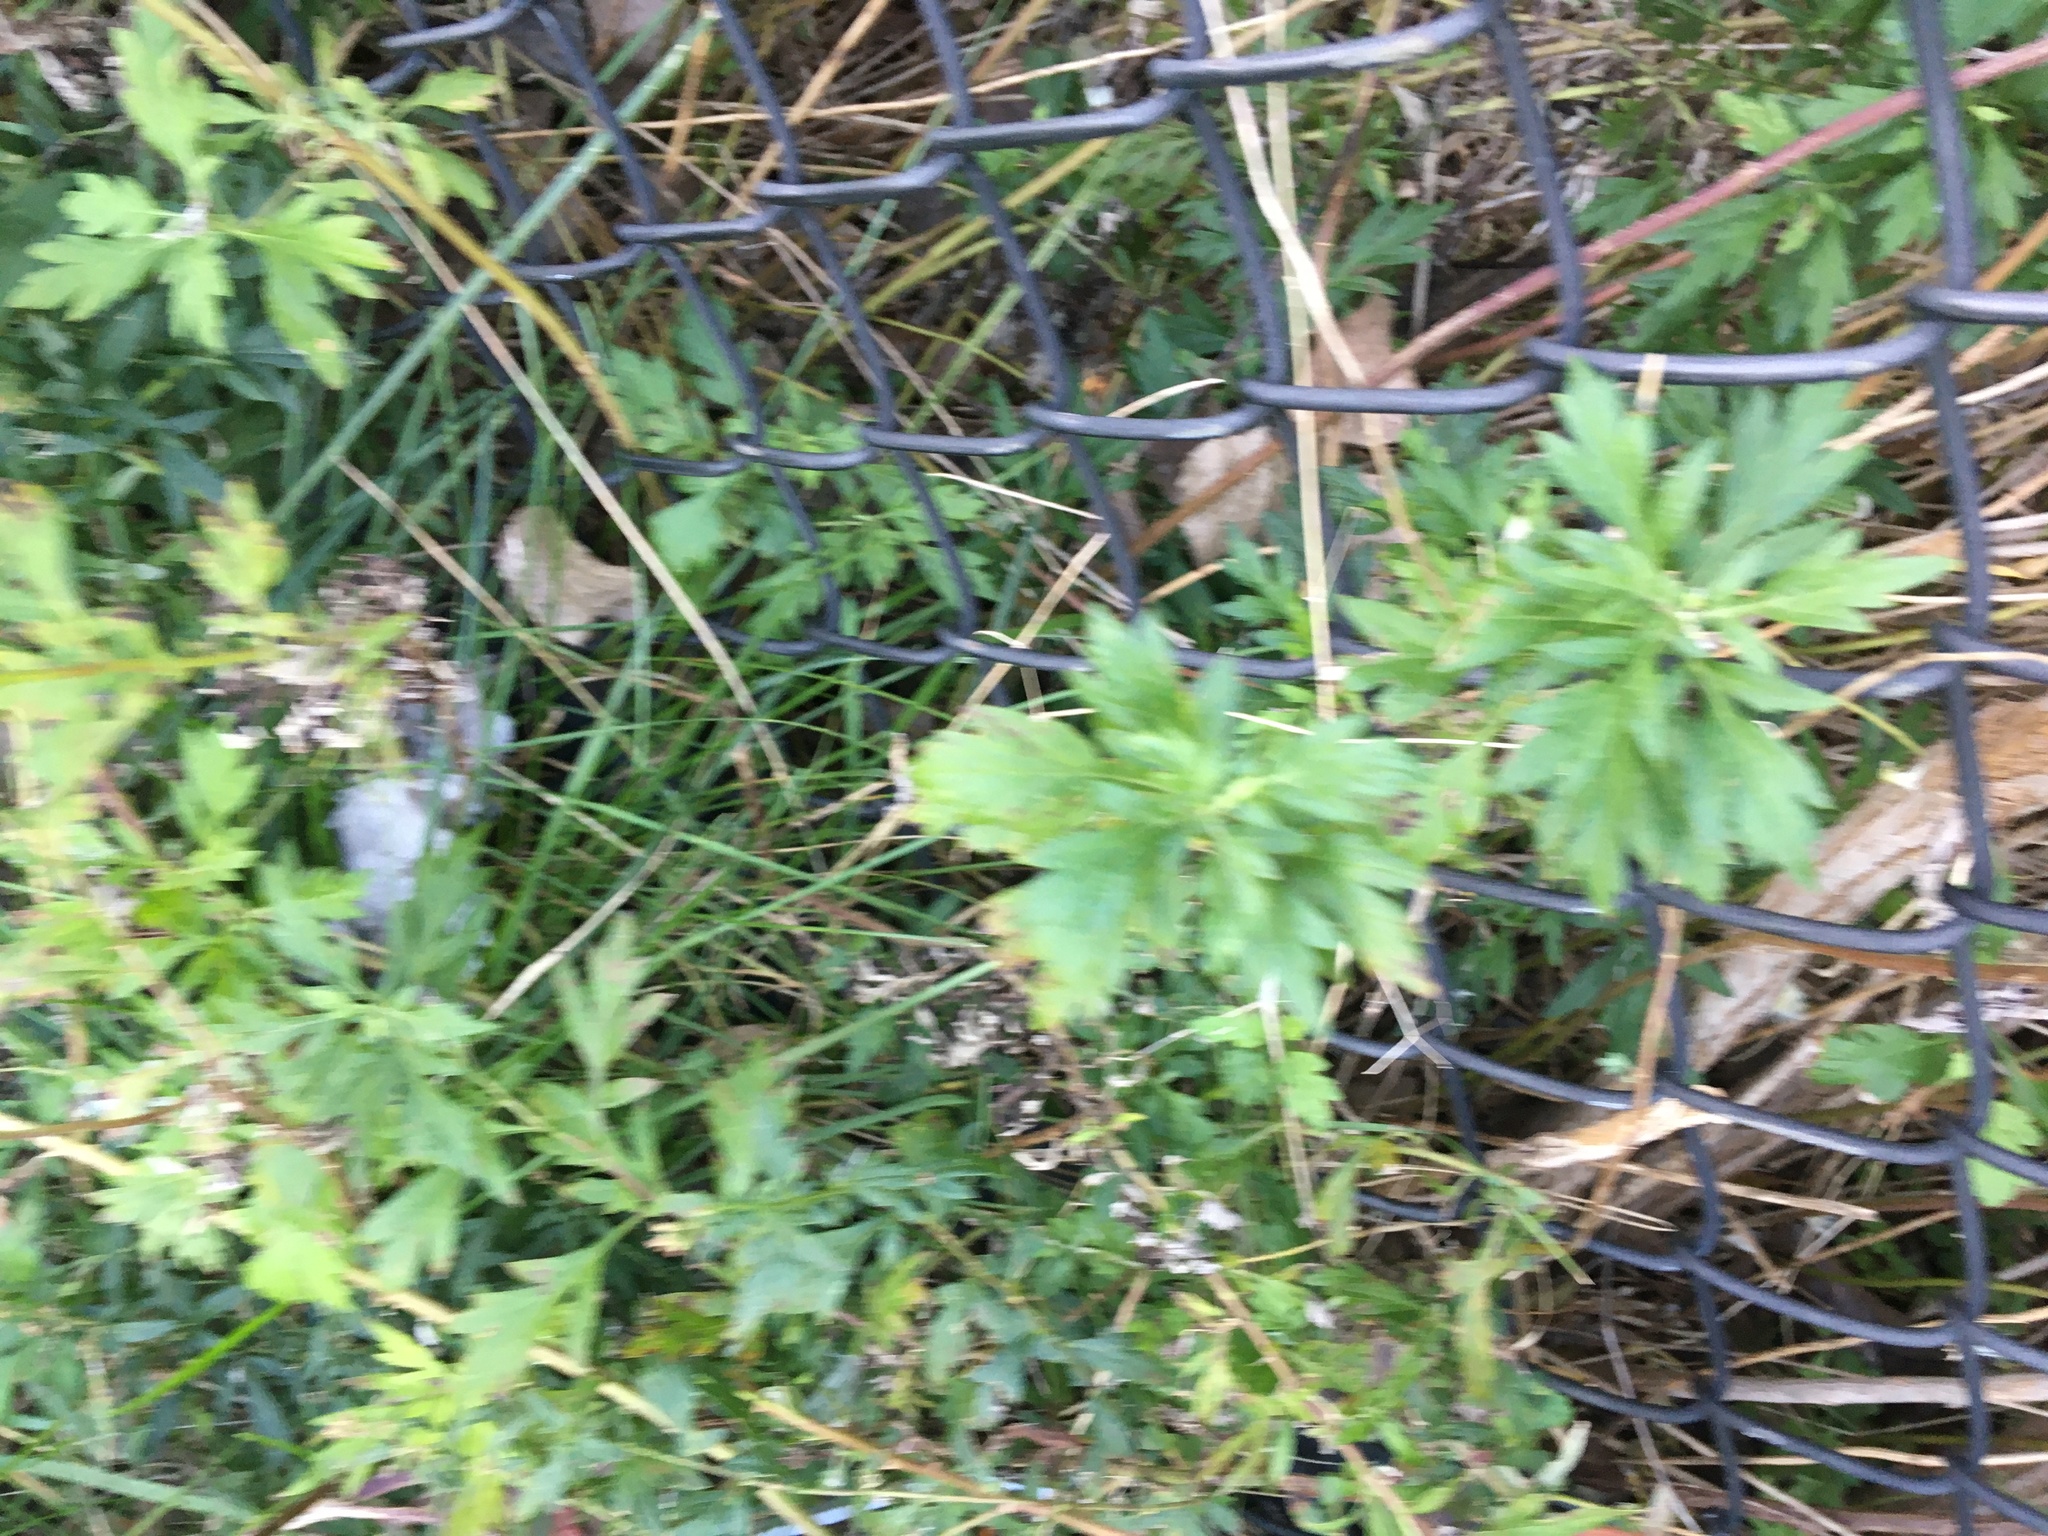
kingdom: Plantae
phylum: Tracheophyta
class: Magnoliopsida
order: Asterales
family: Asteraceae
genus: Artemisia
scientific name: Artemisia vulgaris
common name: Mugwort
